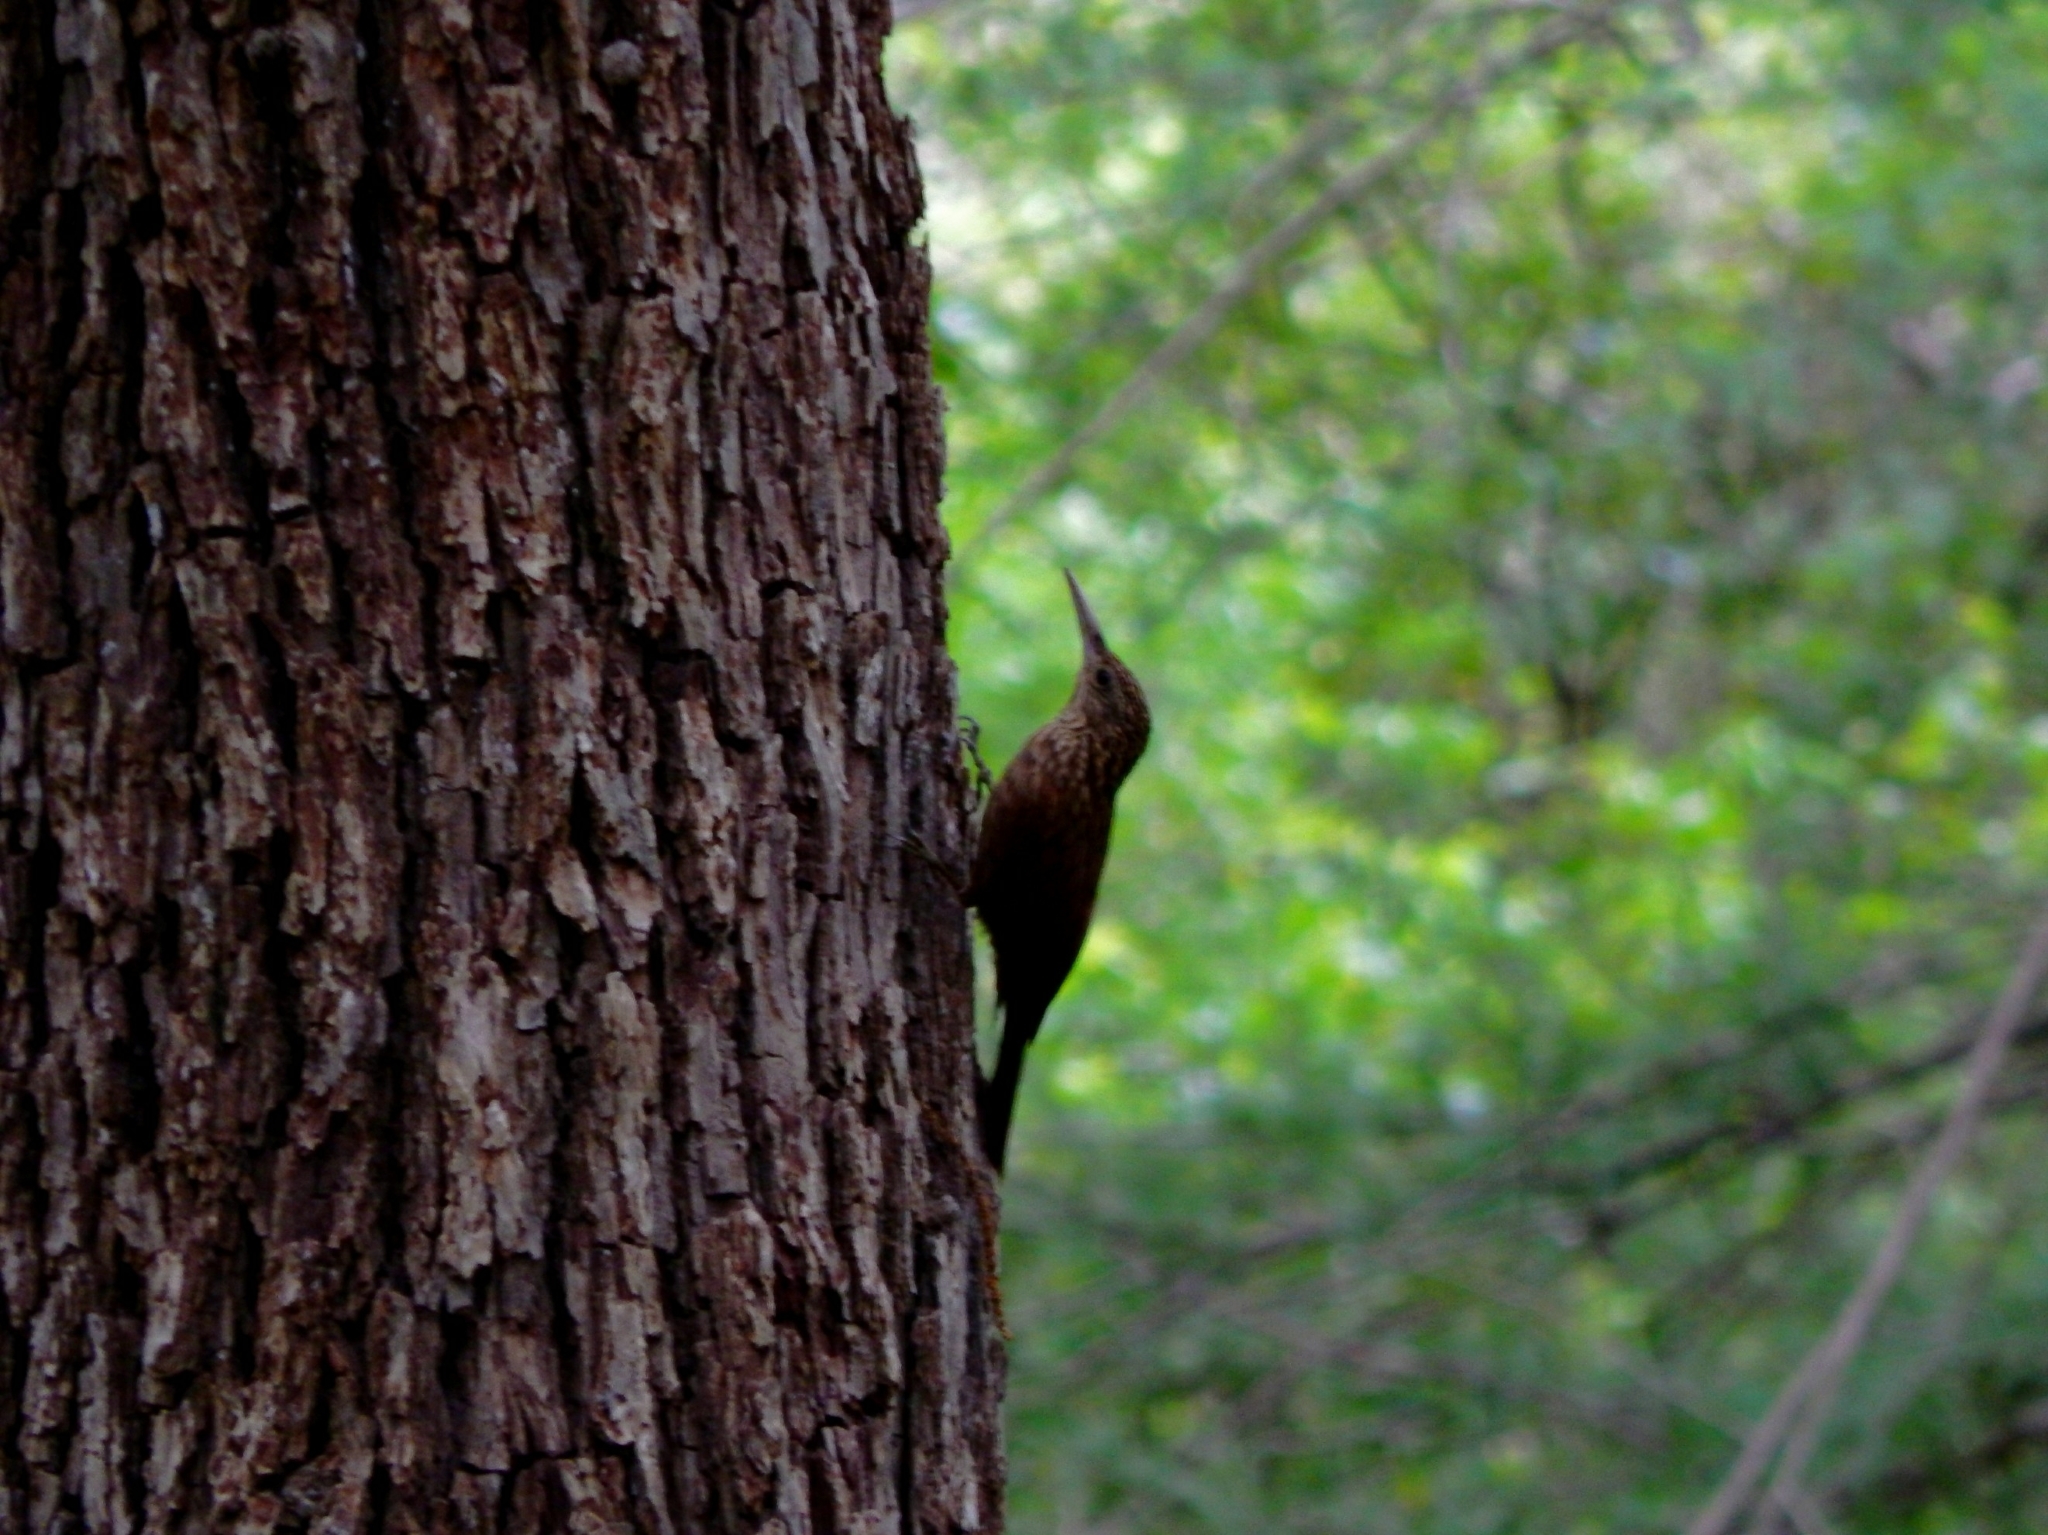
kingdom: Animalia
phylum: Chordata
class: Aves
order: Passeriformes
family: Furnariidae
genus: Lepidocolaptes
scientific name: Lepidocolaptes affinis
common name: Spot-crowned woodcreeper
